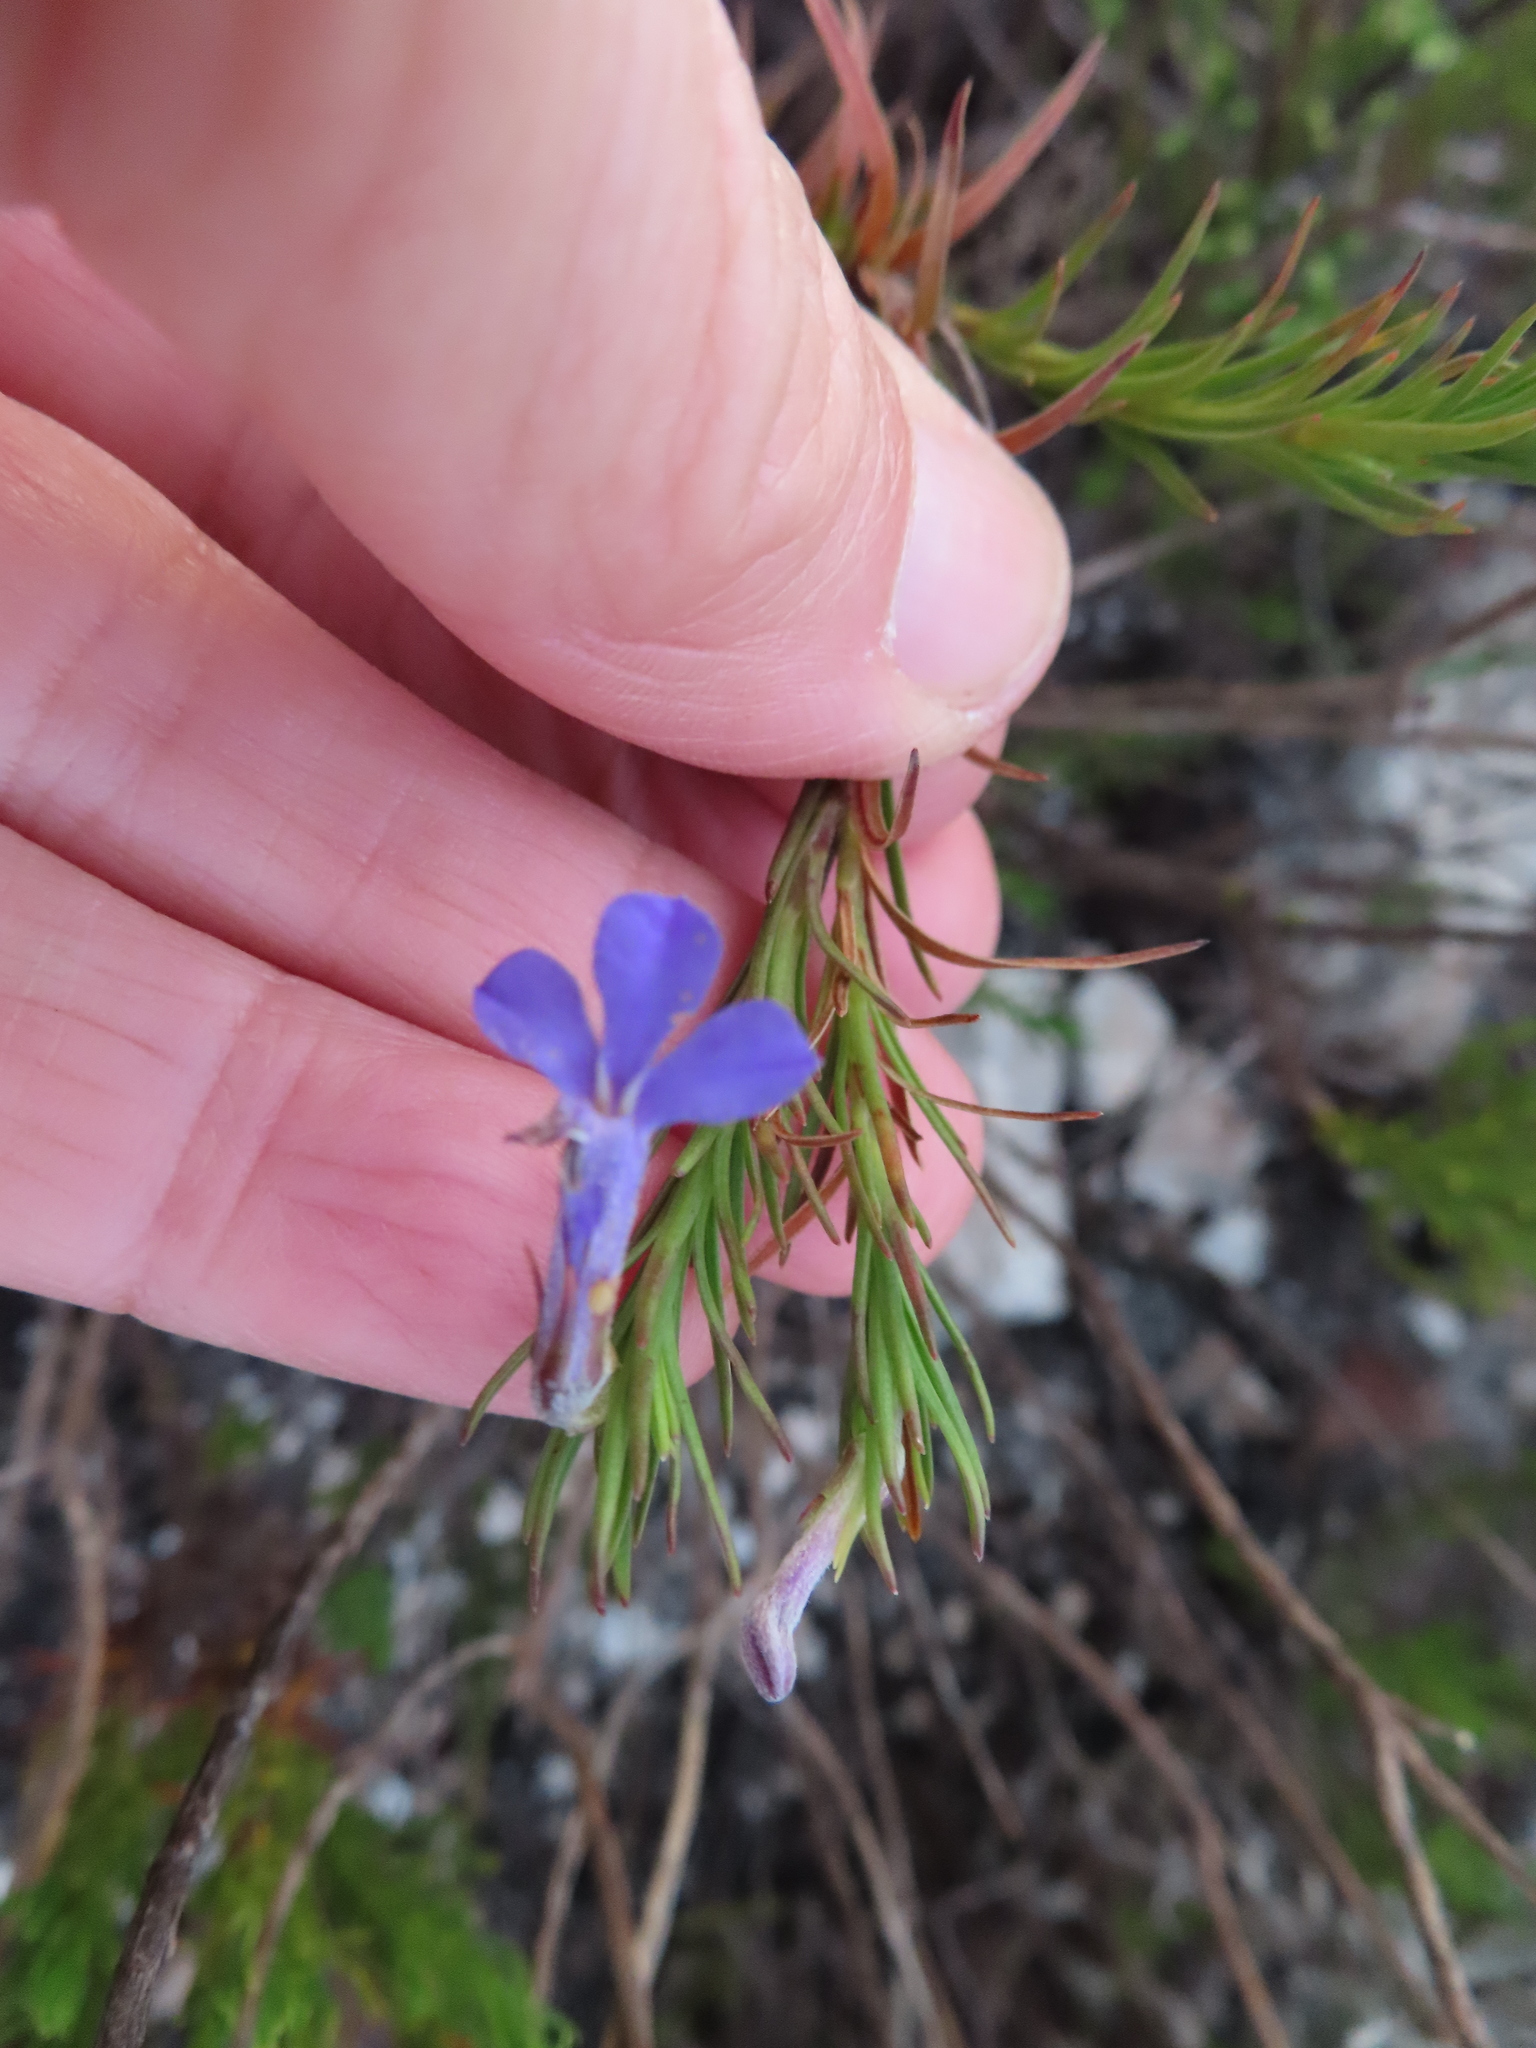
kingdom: Plantae
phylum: Tracheophyta
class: Magnoliopsida
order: Asterales
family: Campanulaceae
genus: Lobelia
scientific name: Lobelia pinifolia
